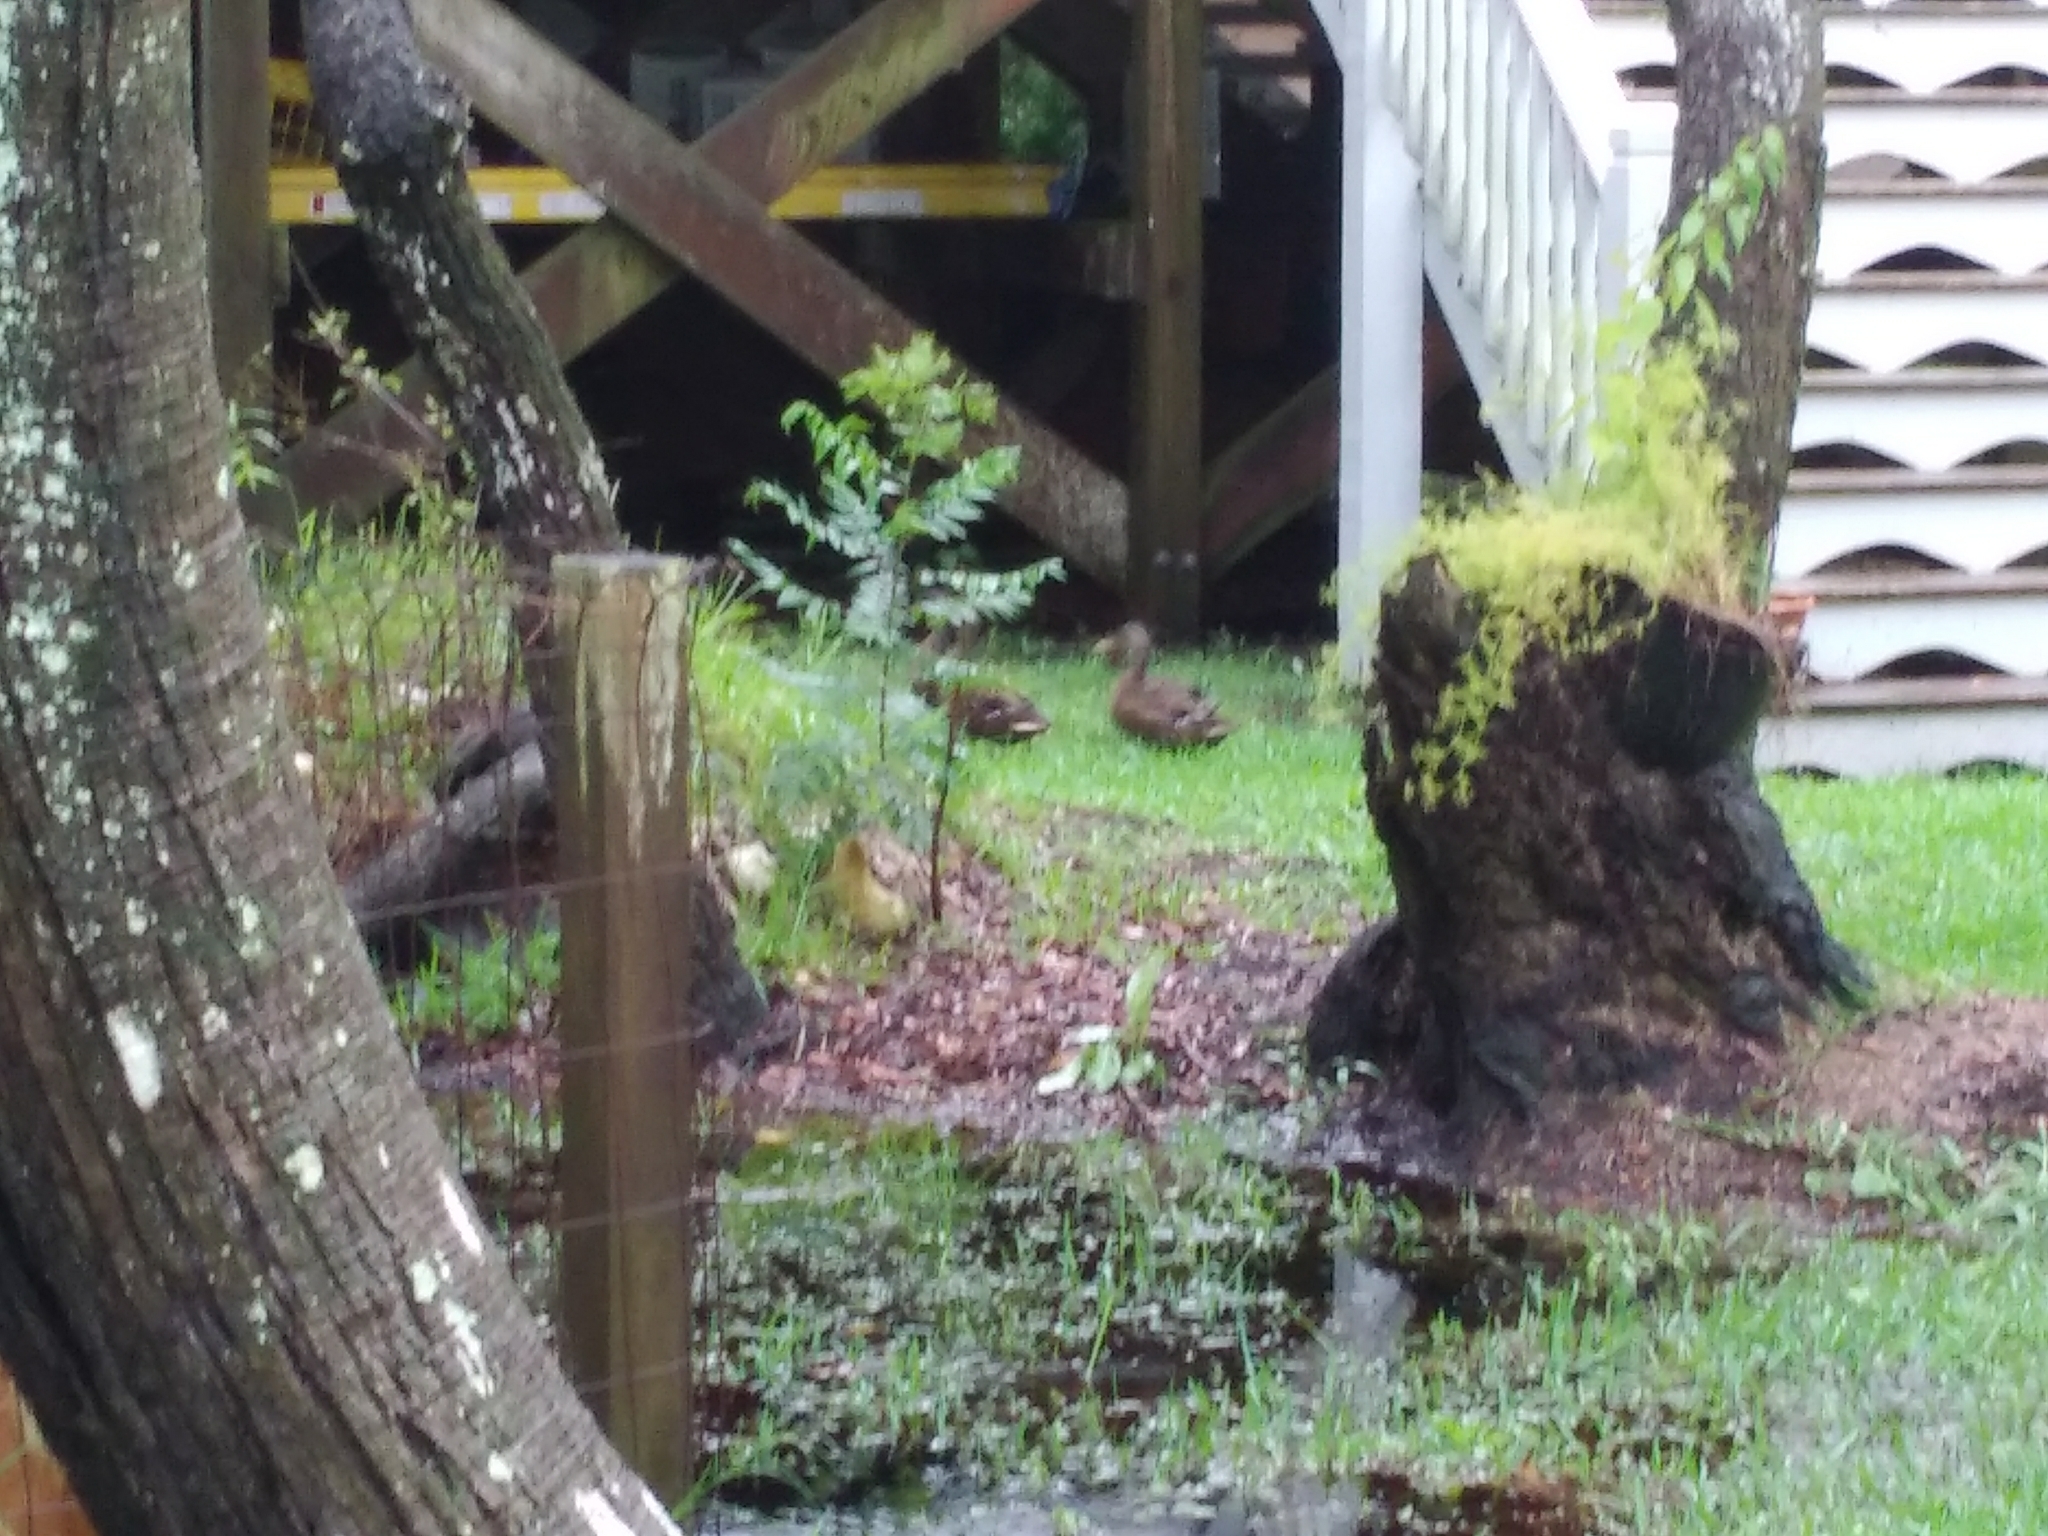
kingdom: Animalia
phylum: Chordata
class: Aves
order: Anseriformes
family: Anatidae
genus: Anas
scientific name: Anas platyrhynchos
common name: Mallard
